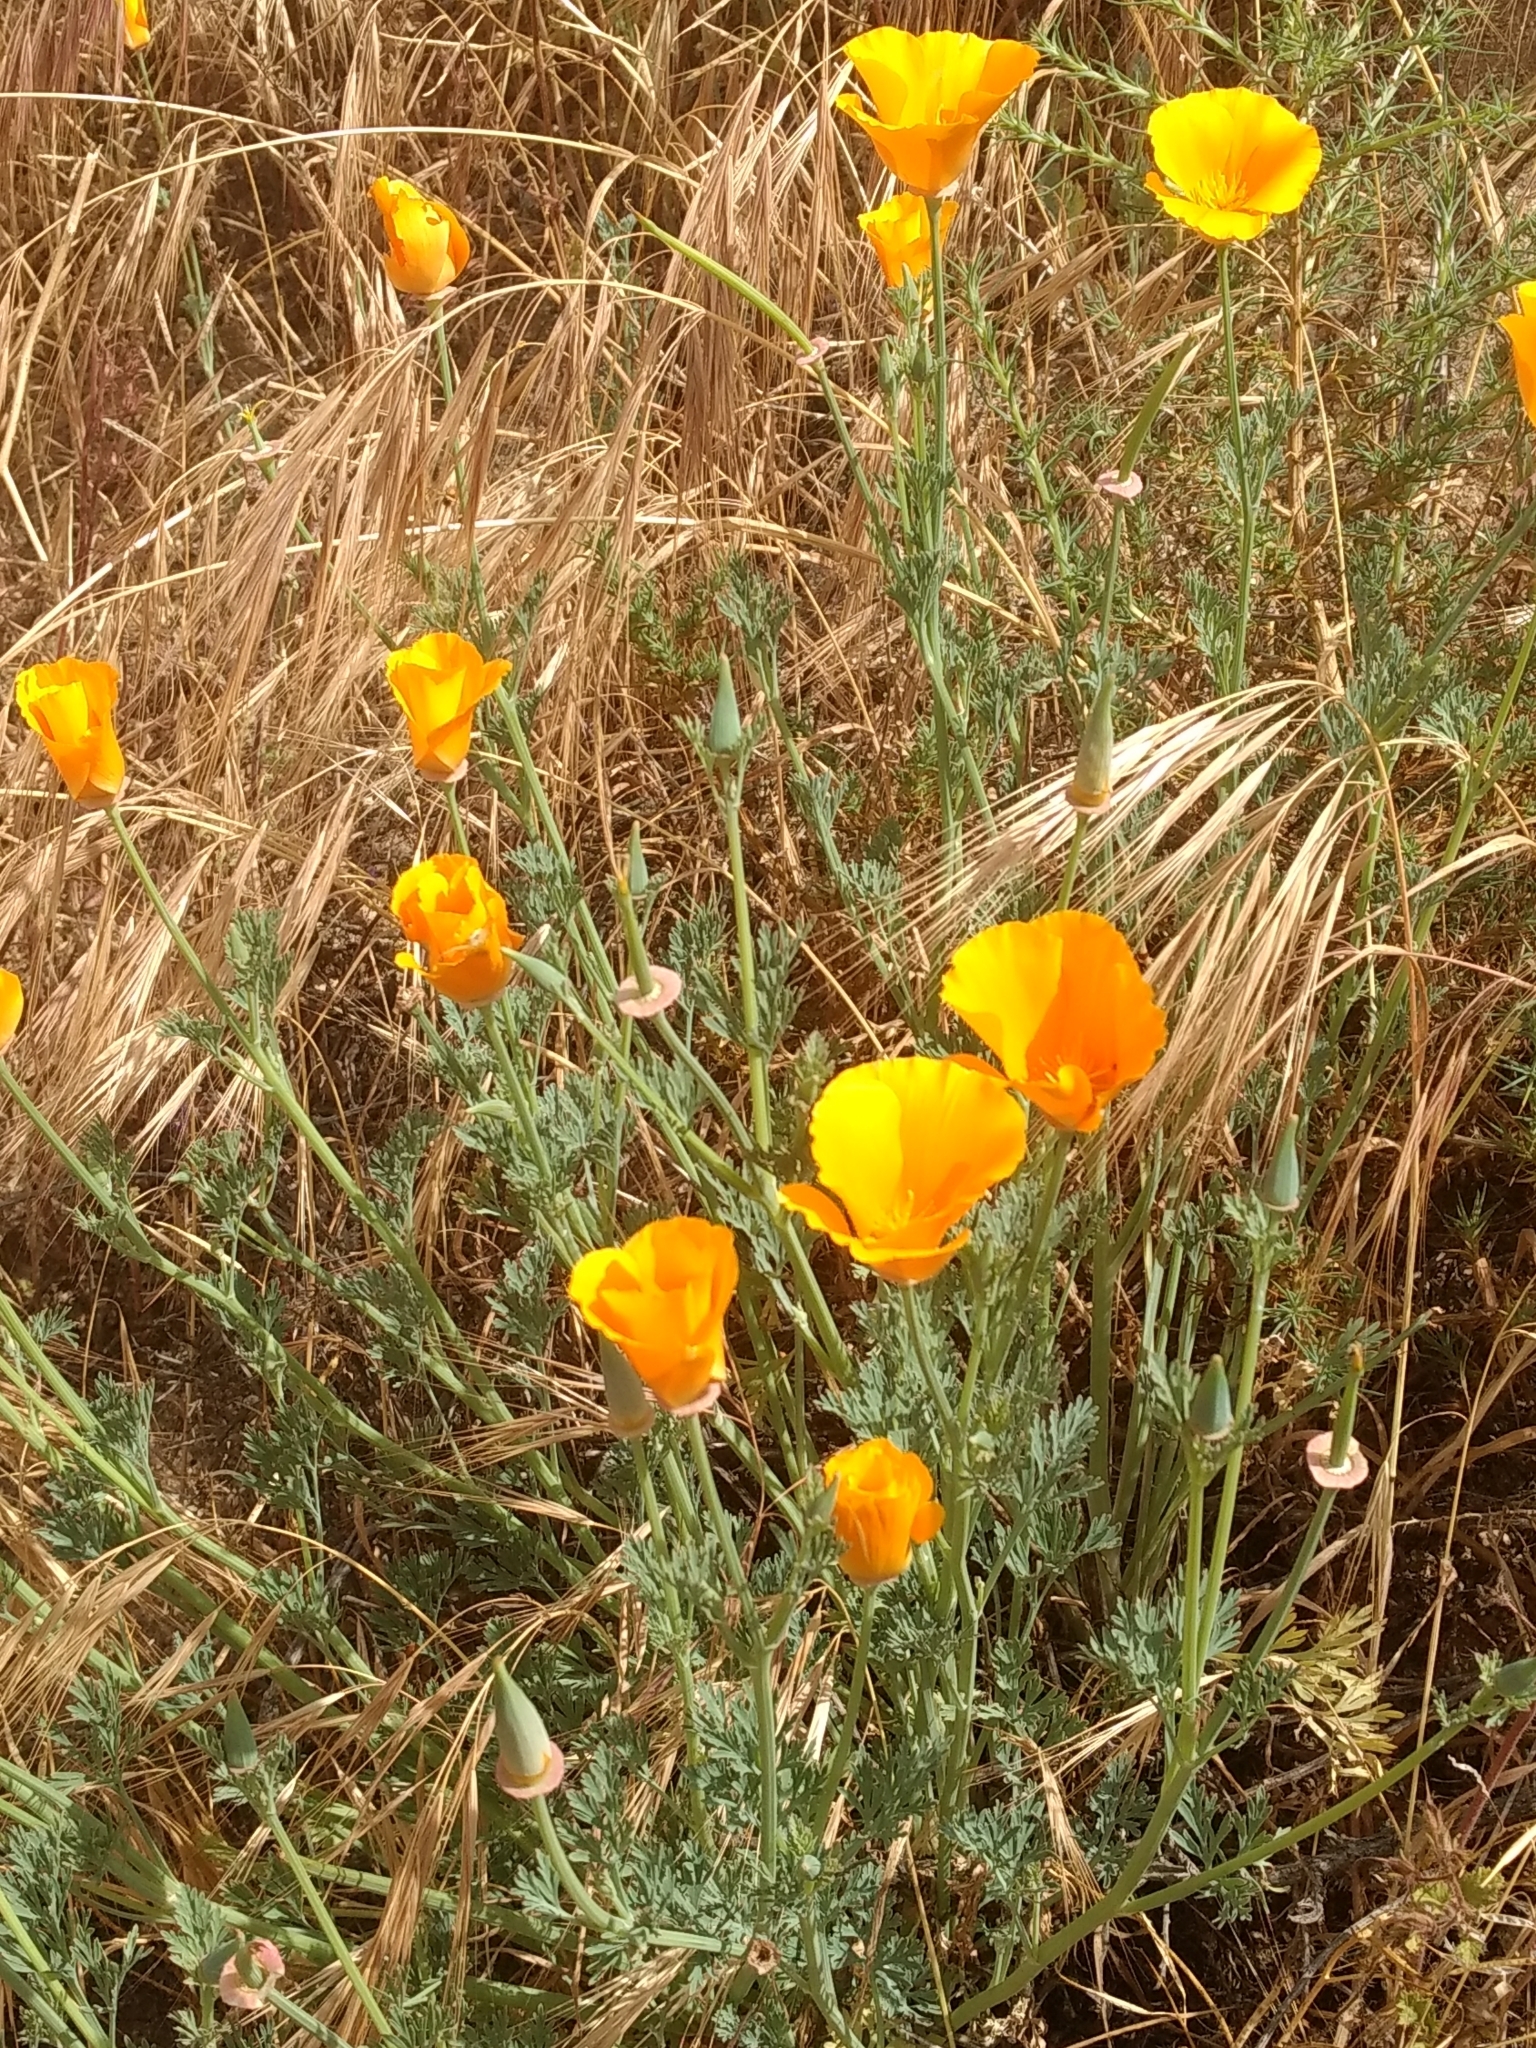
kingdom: Plantae
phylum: Tracheophyta
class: Magnoliopsida
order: Ranunculales
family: Papaveraceae
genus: Eschscholzia
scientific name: Eschscholzia californica
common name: California poppy
